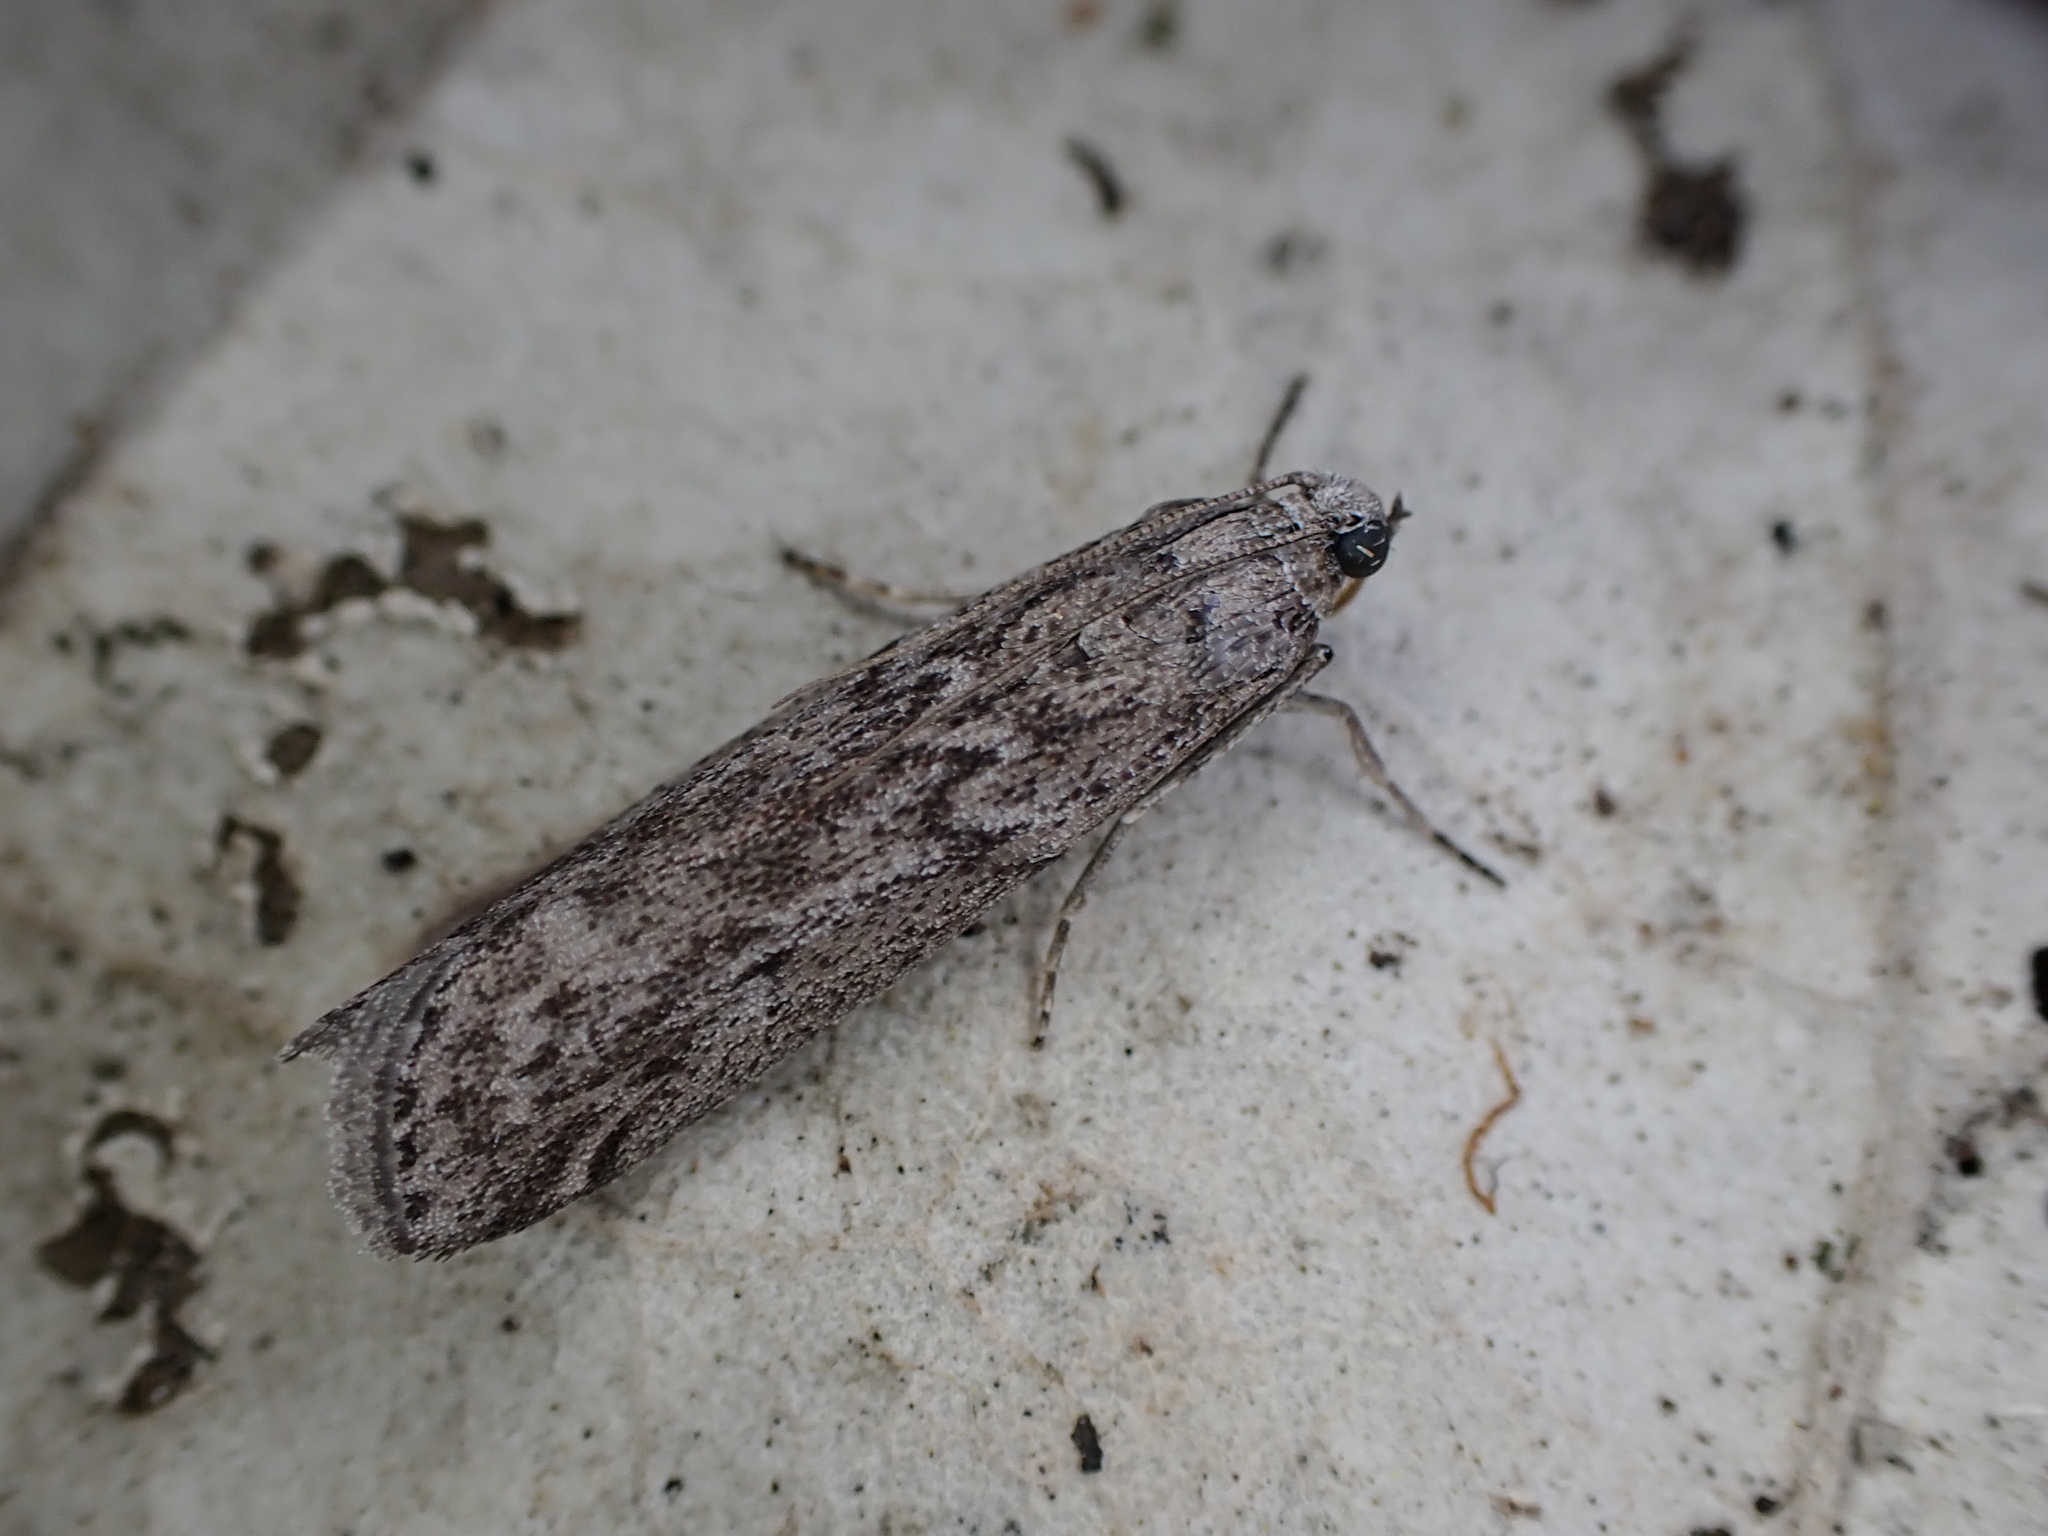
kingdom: Animalia
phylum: Arthropoda
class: Insecta
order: Lepidoptera
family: Pyralidae
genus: Ephestia
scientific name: Ephestia kuehniella
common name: Mediterranean flour moth
